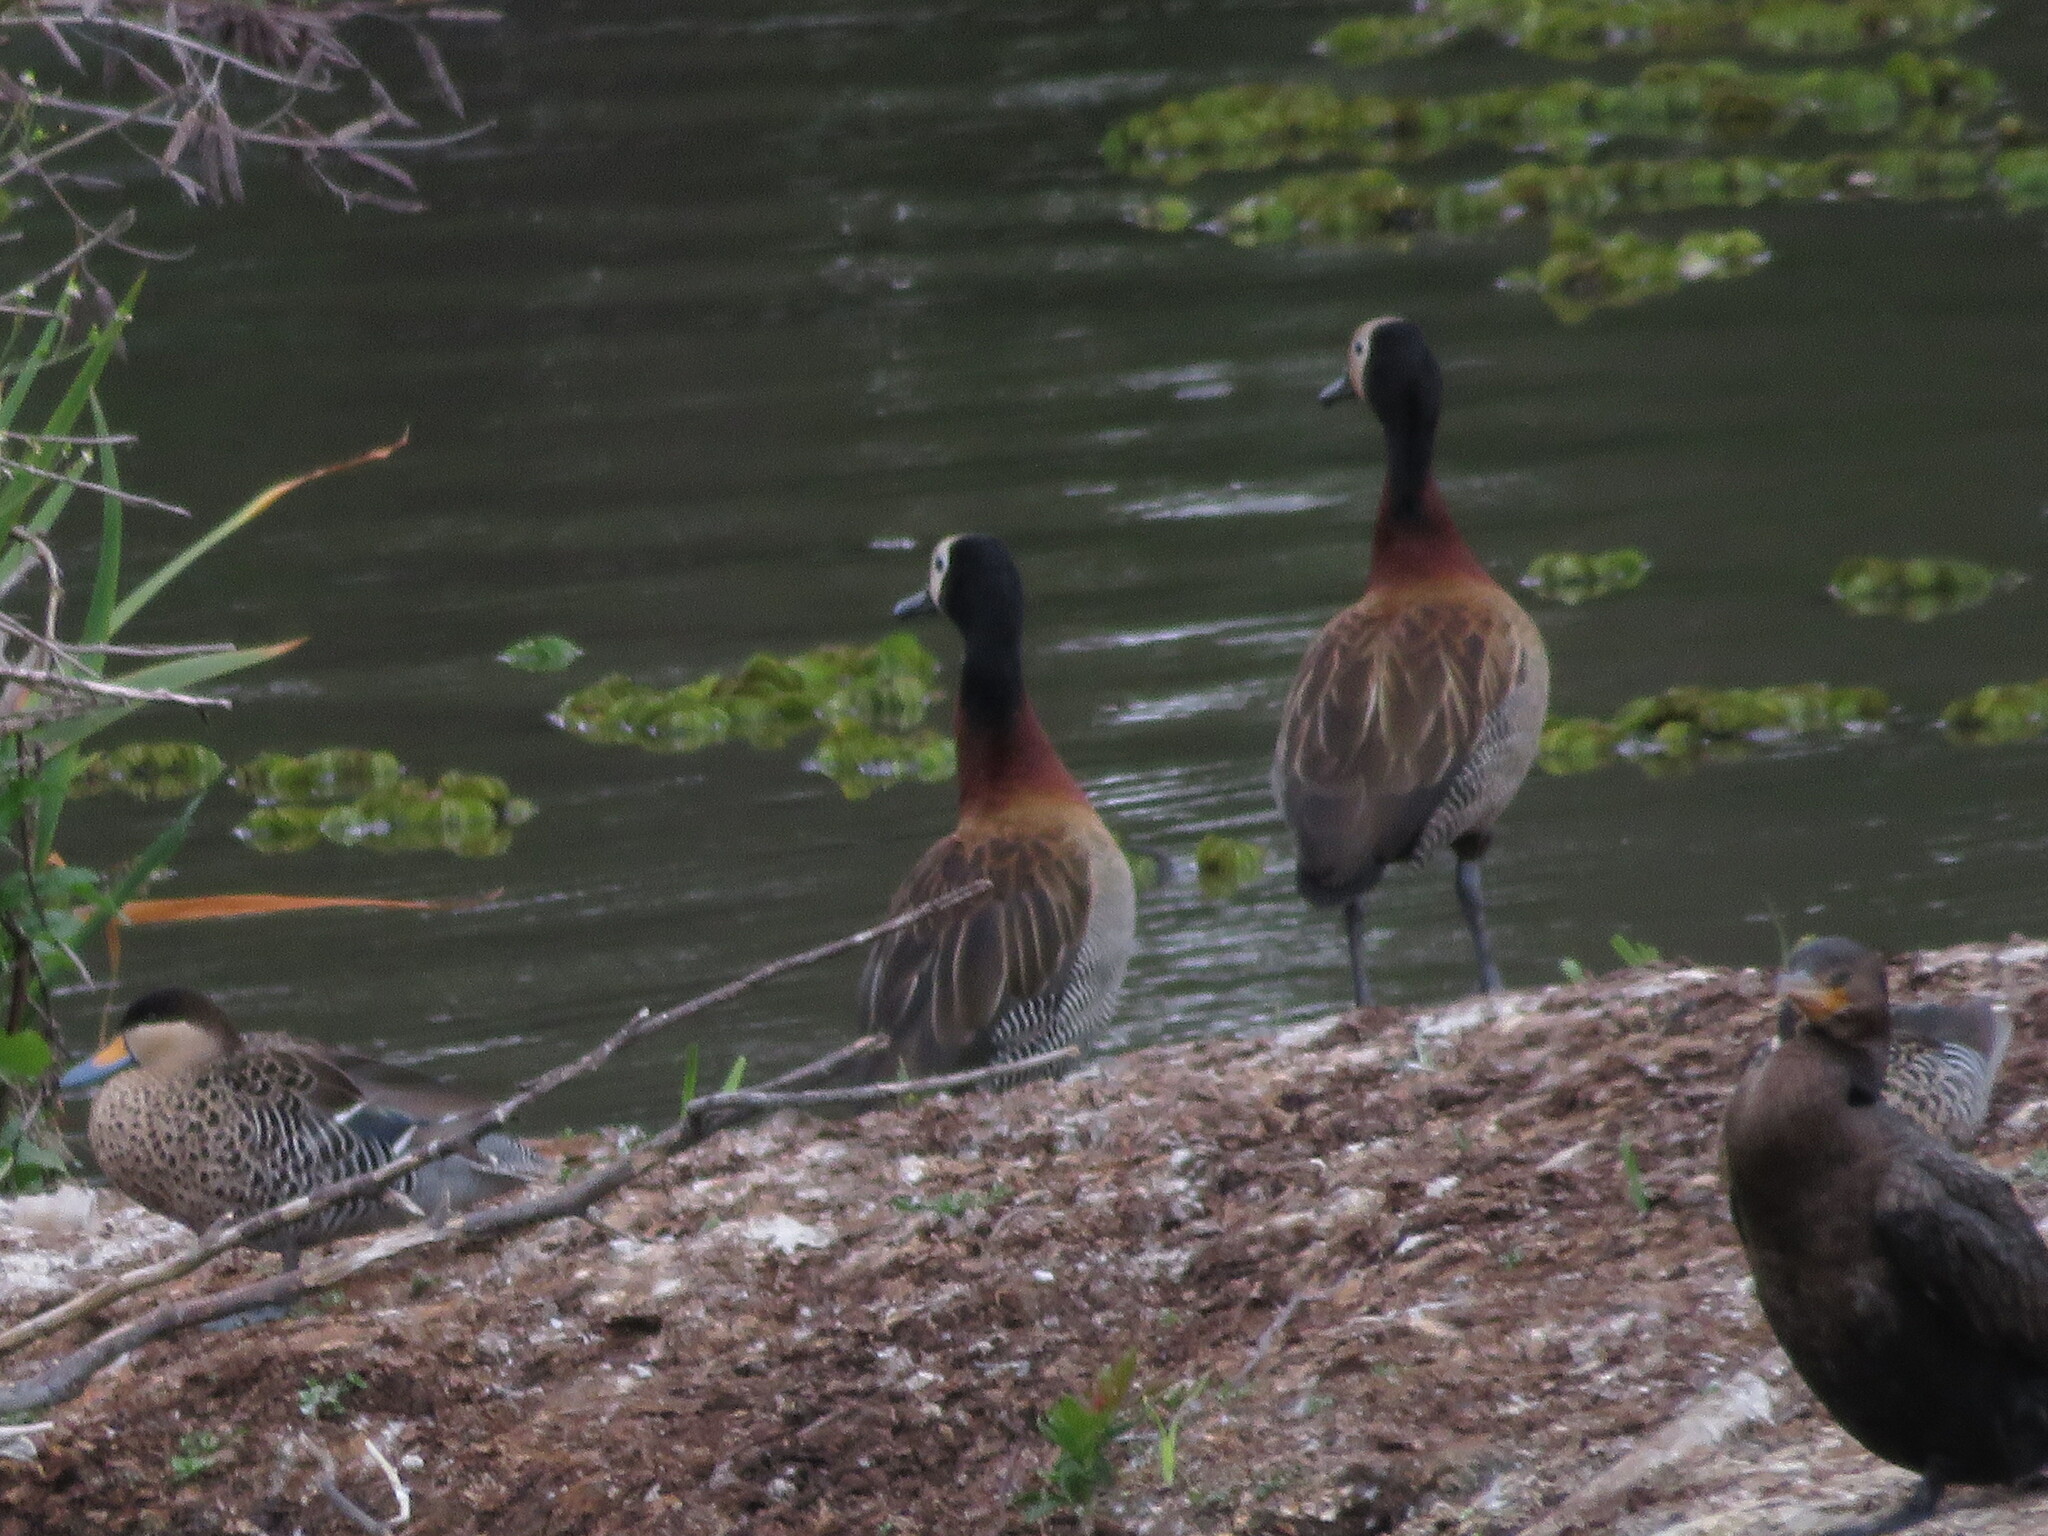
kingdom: Animalia
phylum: Chordata
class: Aves
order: Anseriformes
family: Anatidae
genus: Spatula
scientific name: Spatula versicolor
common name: Silver teal
